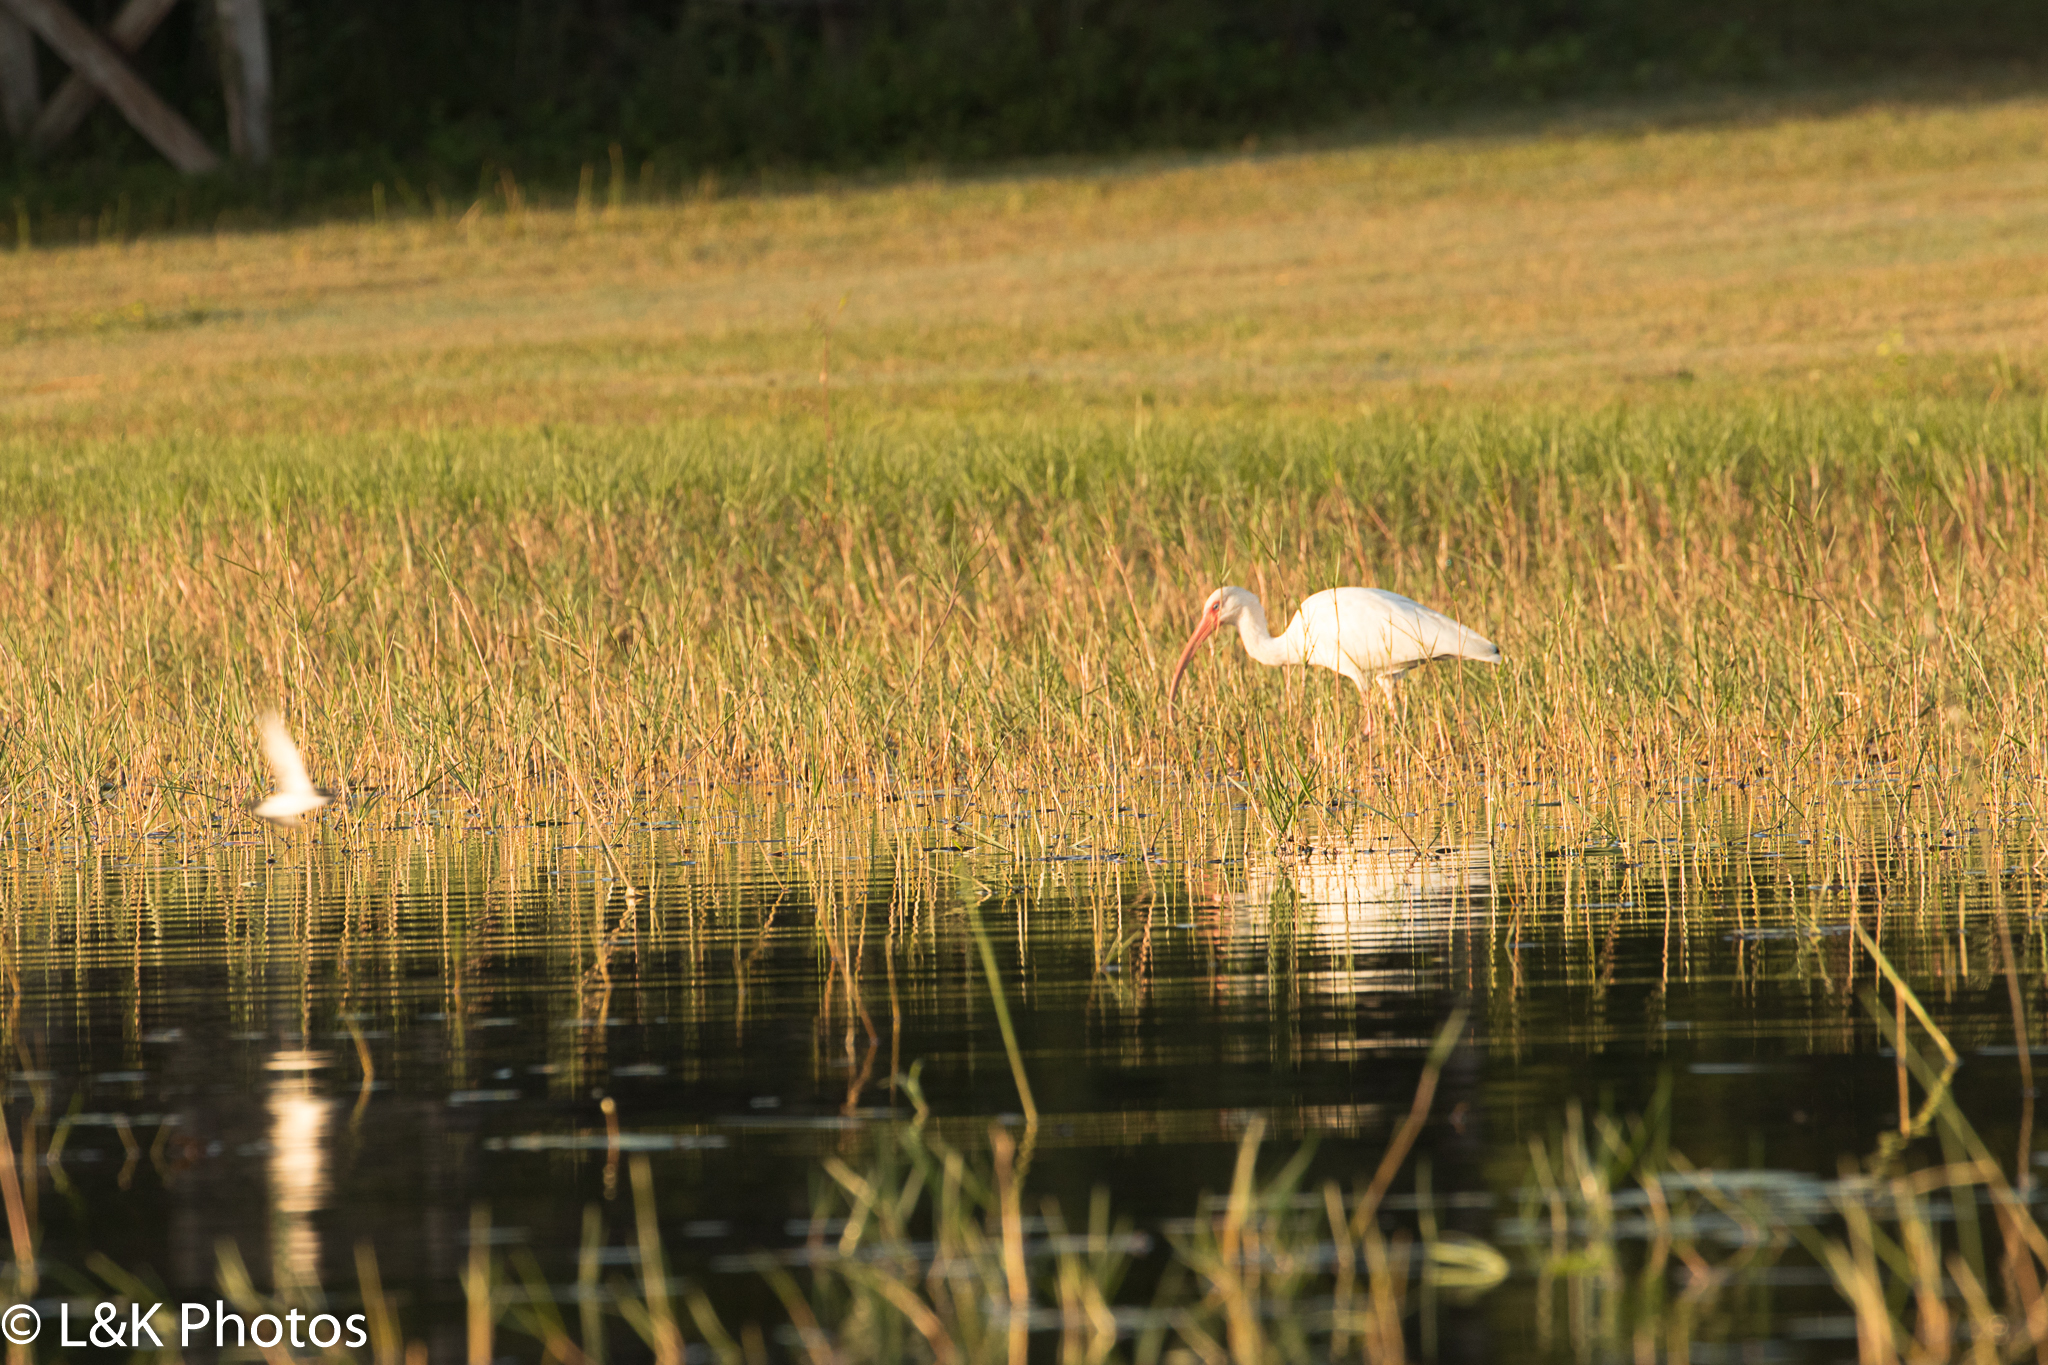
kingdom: Animalia
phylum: Chordata
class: Aves
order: Pelecaniformes
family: Threskiornithidae
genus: Eudocimus
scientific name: Eudocimus albus
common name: White ibis
